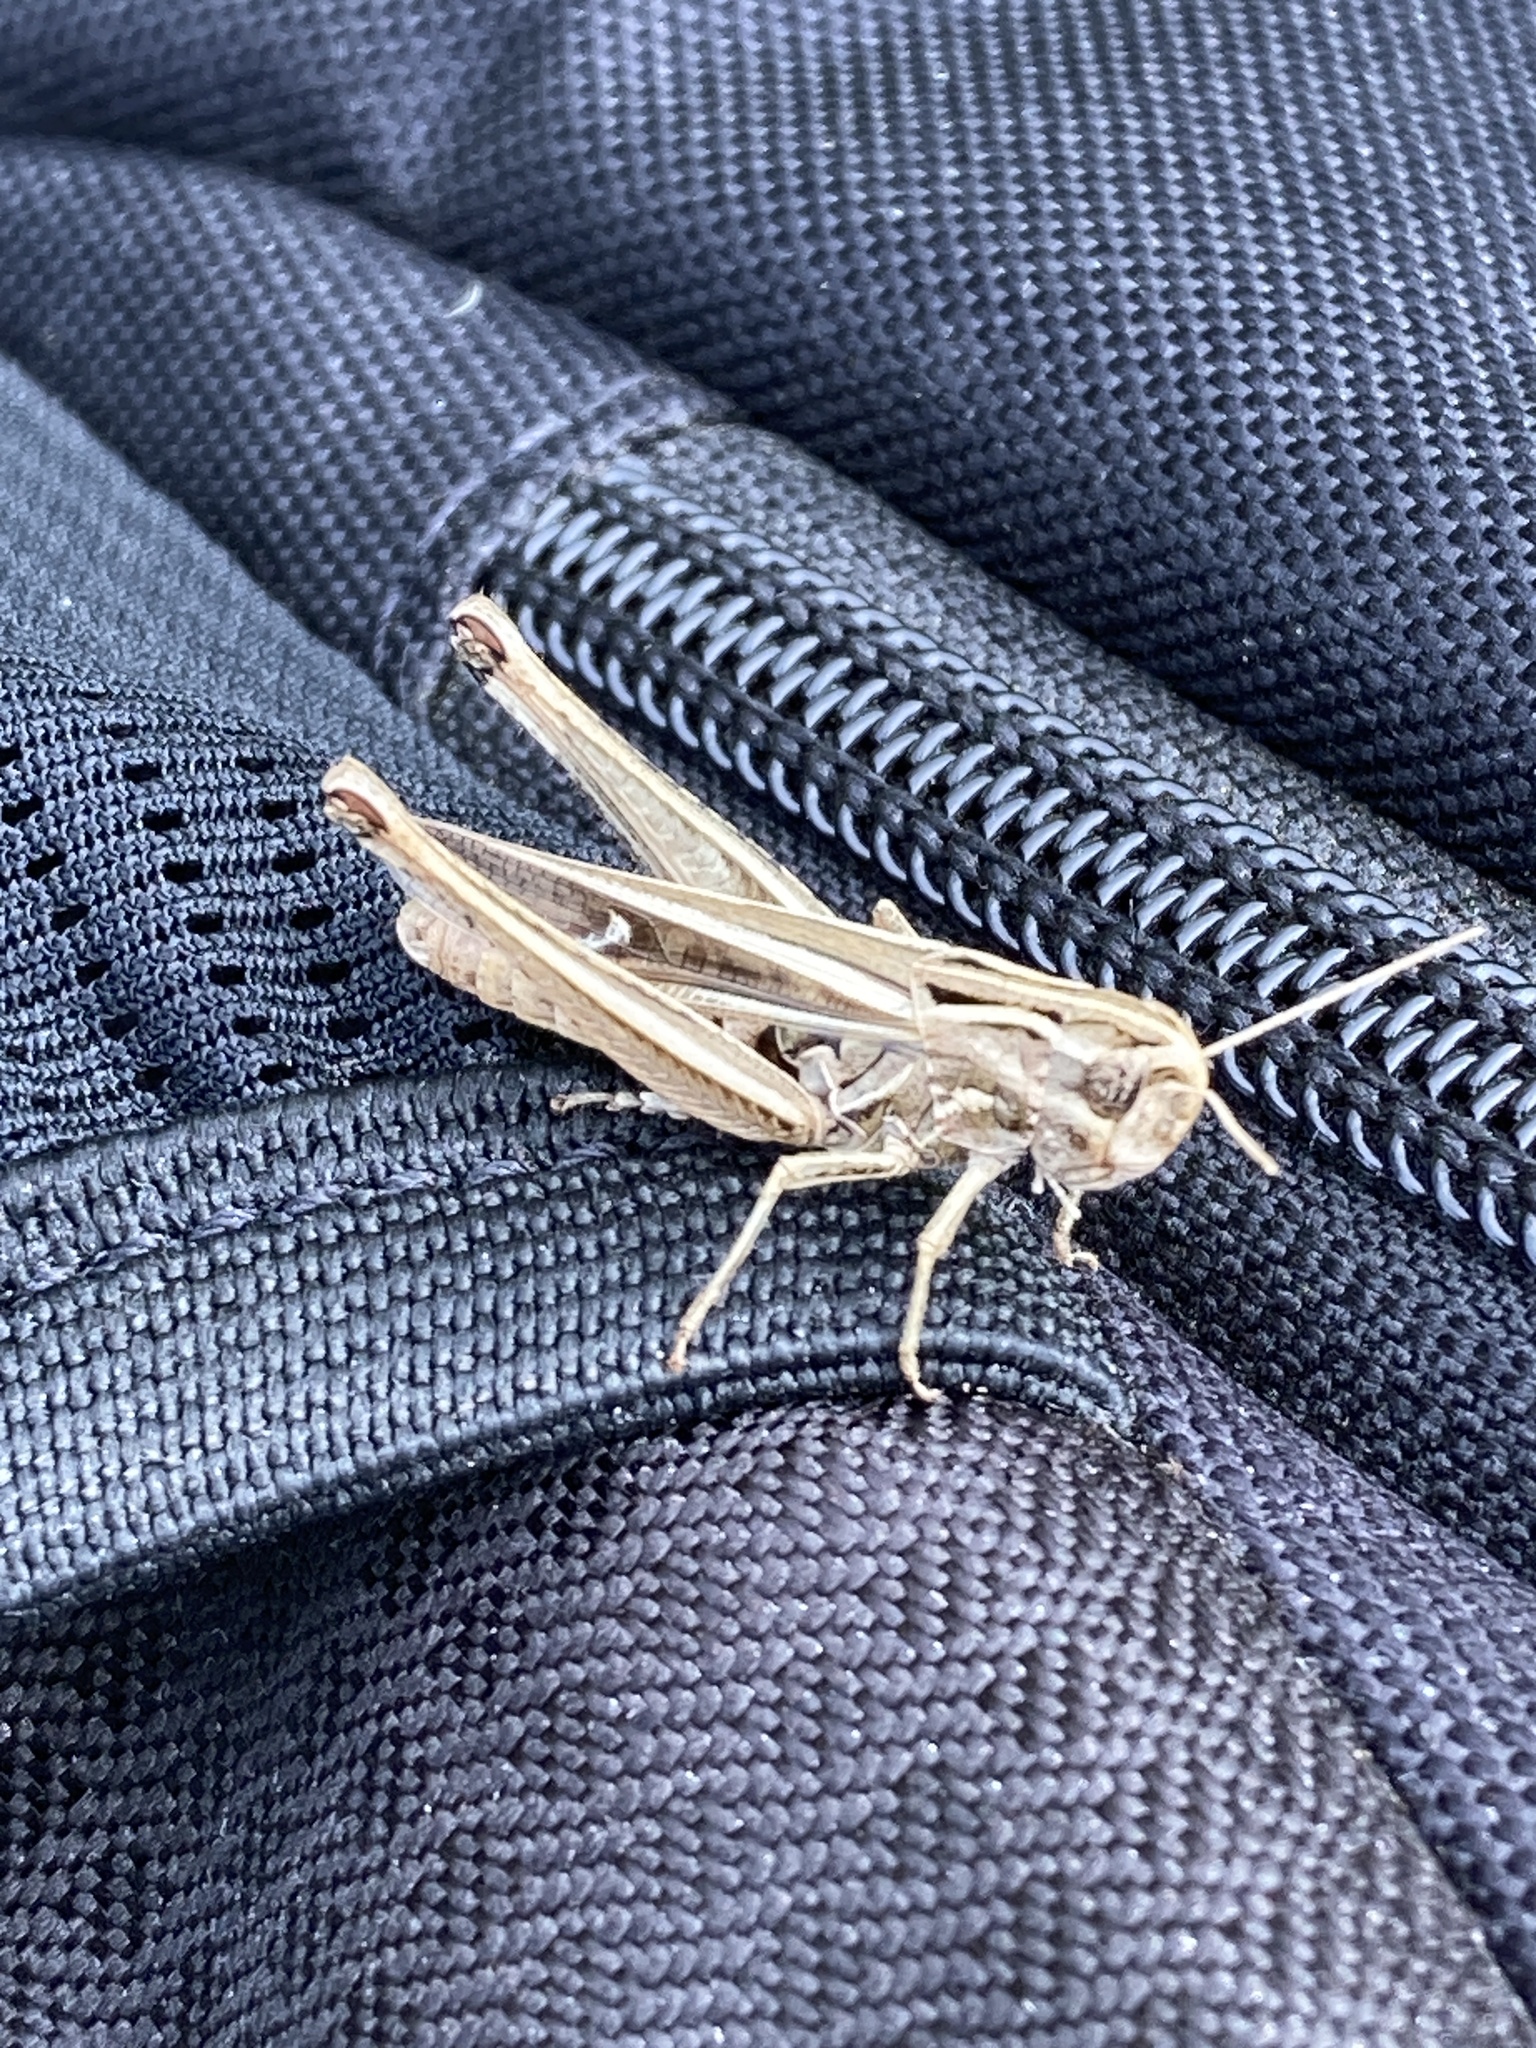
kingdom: Animalia
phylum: Arthropoda
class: Insecta
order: Orthoptera
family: Acrididae
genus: Stenobothrus
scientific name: Stenobothrus lineatus
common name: Stripe-winged grasshopper
